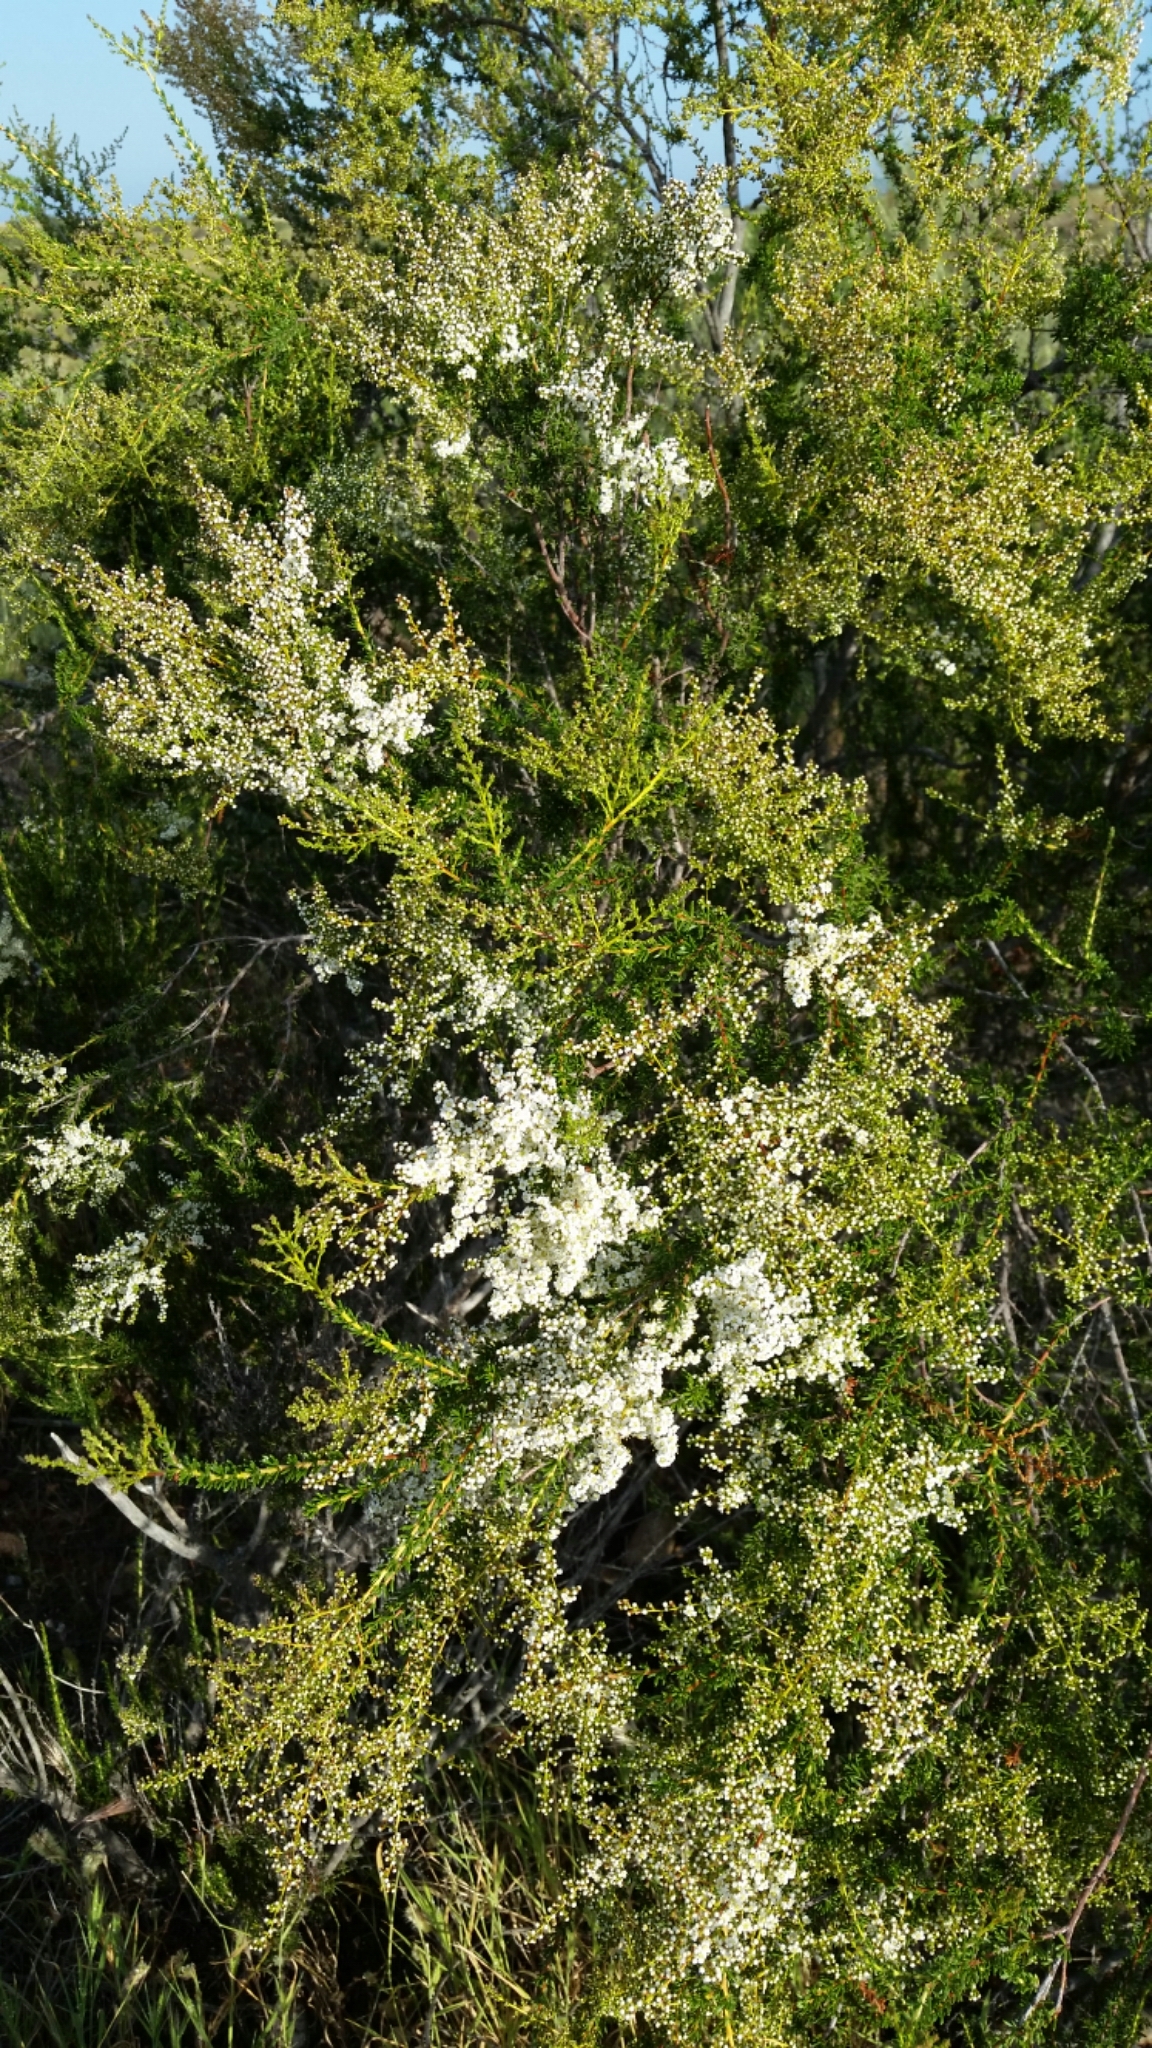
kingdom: Plantae
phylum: Tracheophyta
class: Magnoliopsida
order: Rosales
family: Rosaceae
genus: Adenostoma
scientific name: Adenostoma fasciculatum
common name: Chamise
